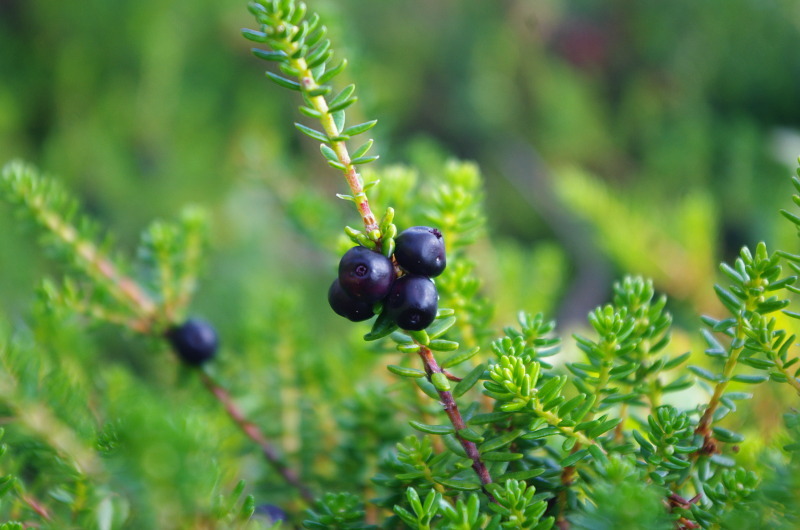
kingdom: Plantae
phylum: Tracheophyta
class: Magnoliopsida
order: Ericales
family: Ericaceae
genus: Empetrum
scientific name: Empetrum nigrum
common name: Black crowberry
